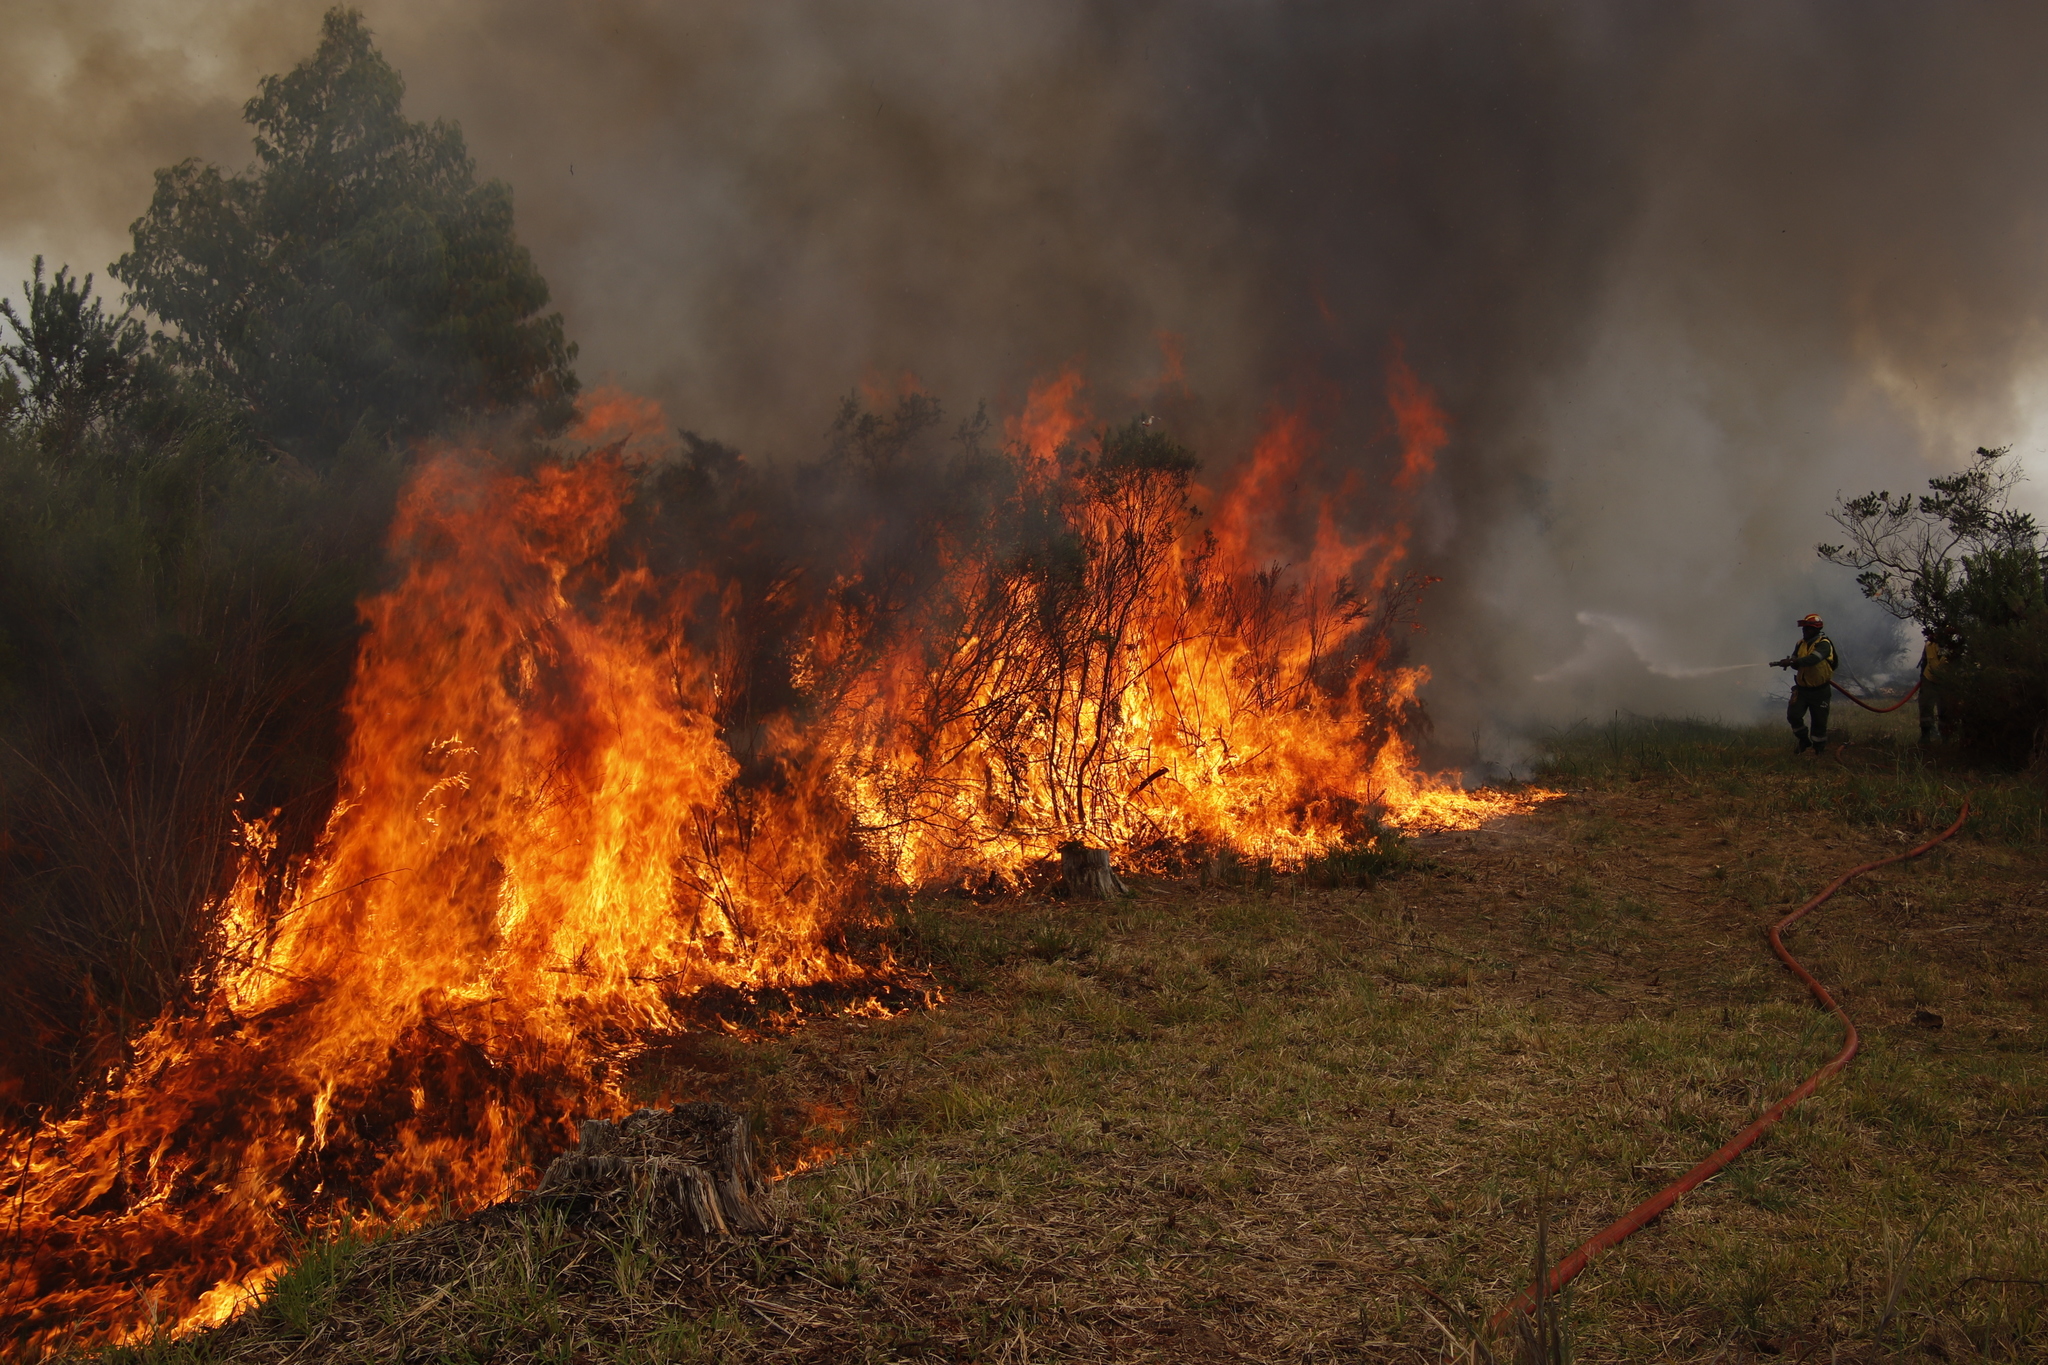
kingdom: Plantae
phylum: Tracheophyta
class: Magnoliopsida
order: Rosales
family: Rosaceae
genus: Cliffortia
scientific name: Cliffortia strobilifera
